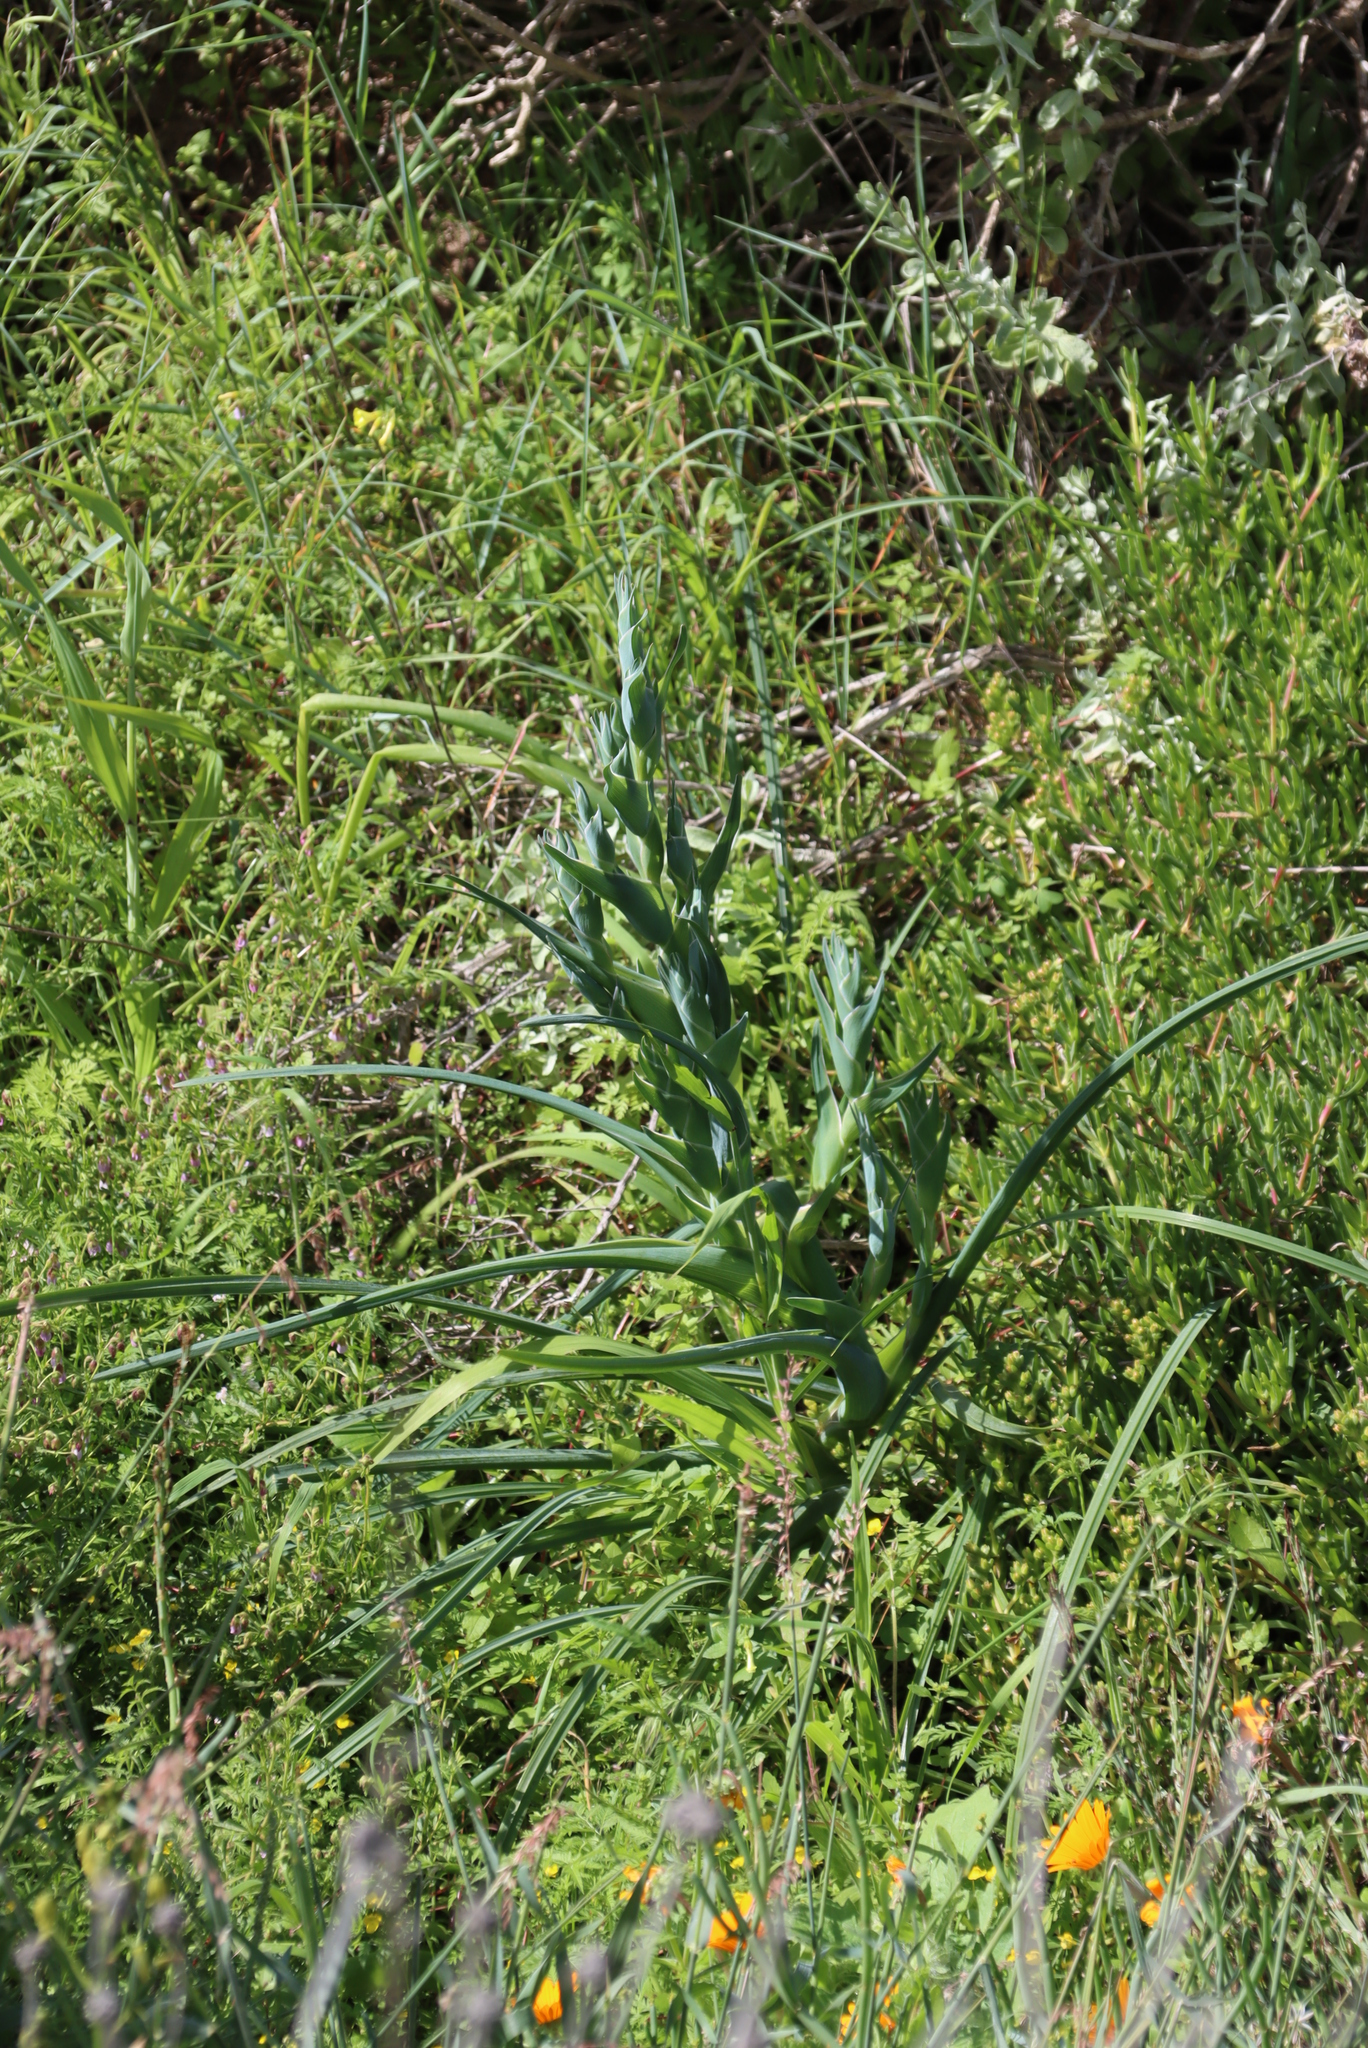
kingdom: Plantae
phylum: Tracheophyta
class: Liliopsida
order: Asparagales
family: Iridaceae
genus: Ferraria
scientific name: Ferraria crispa
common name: Black-flag
